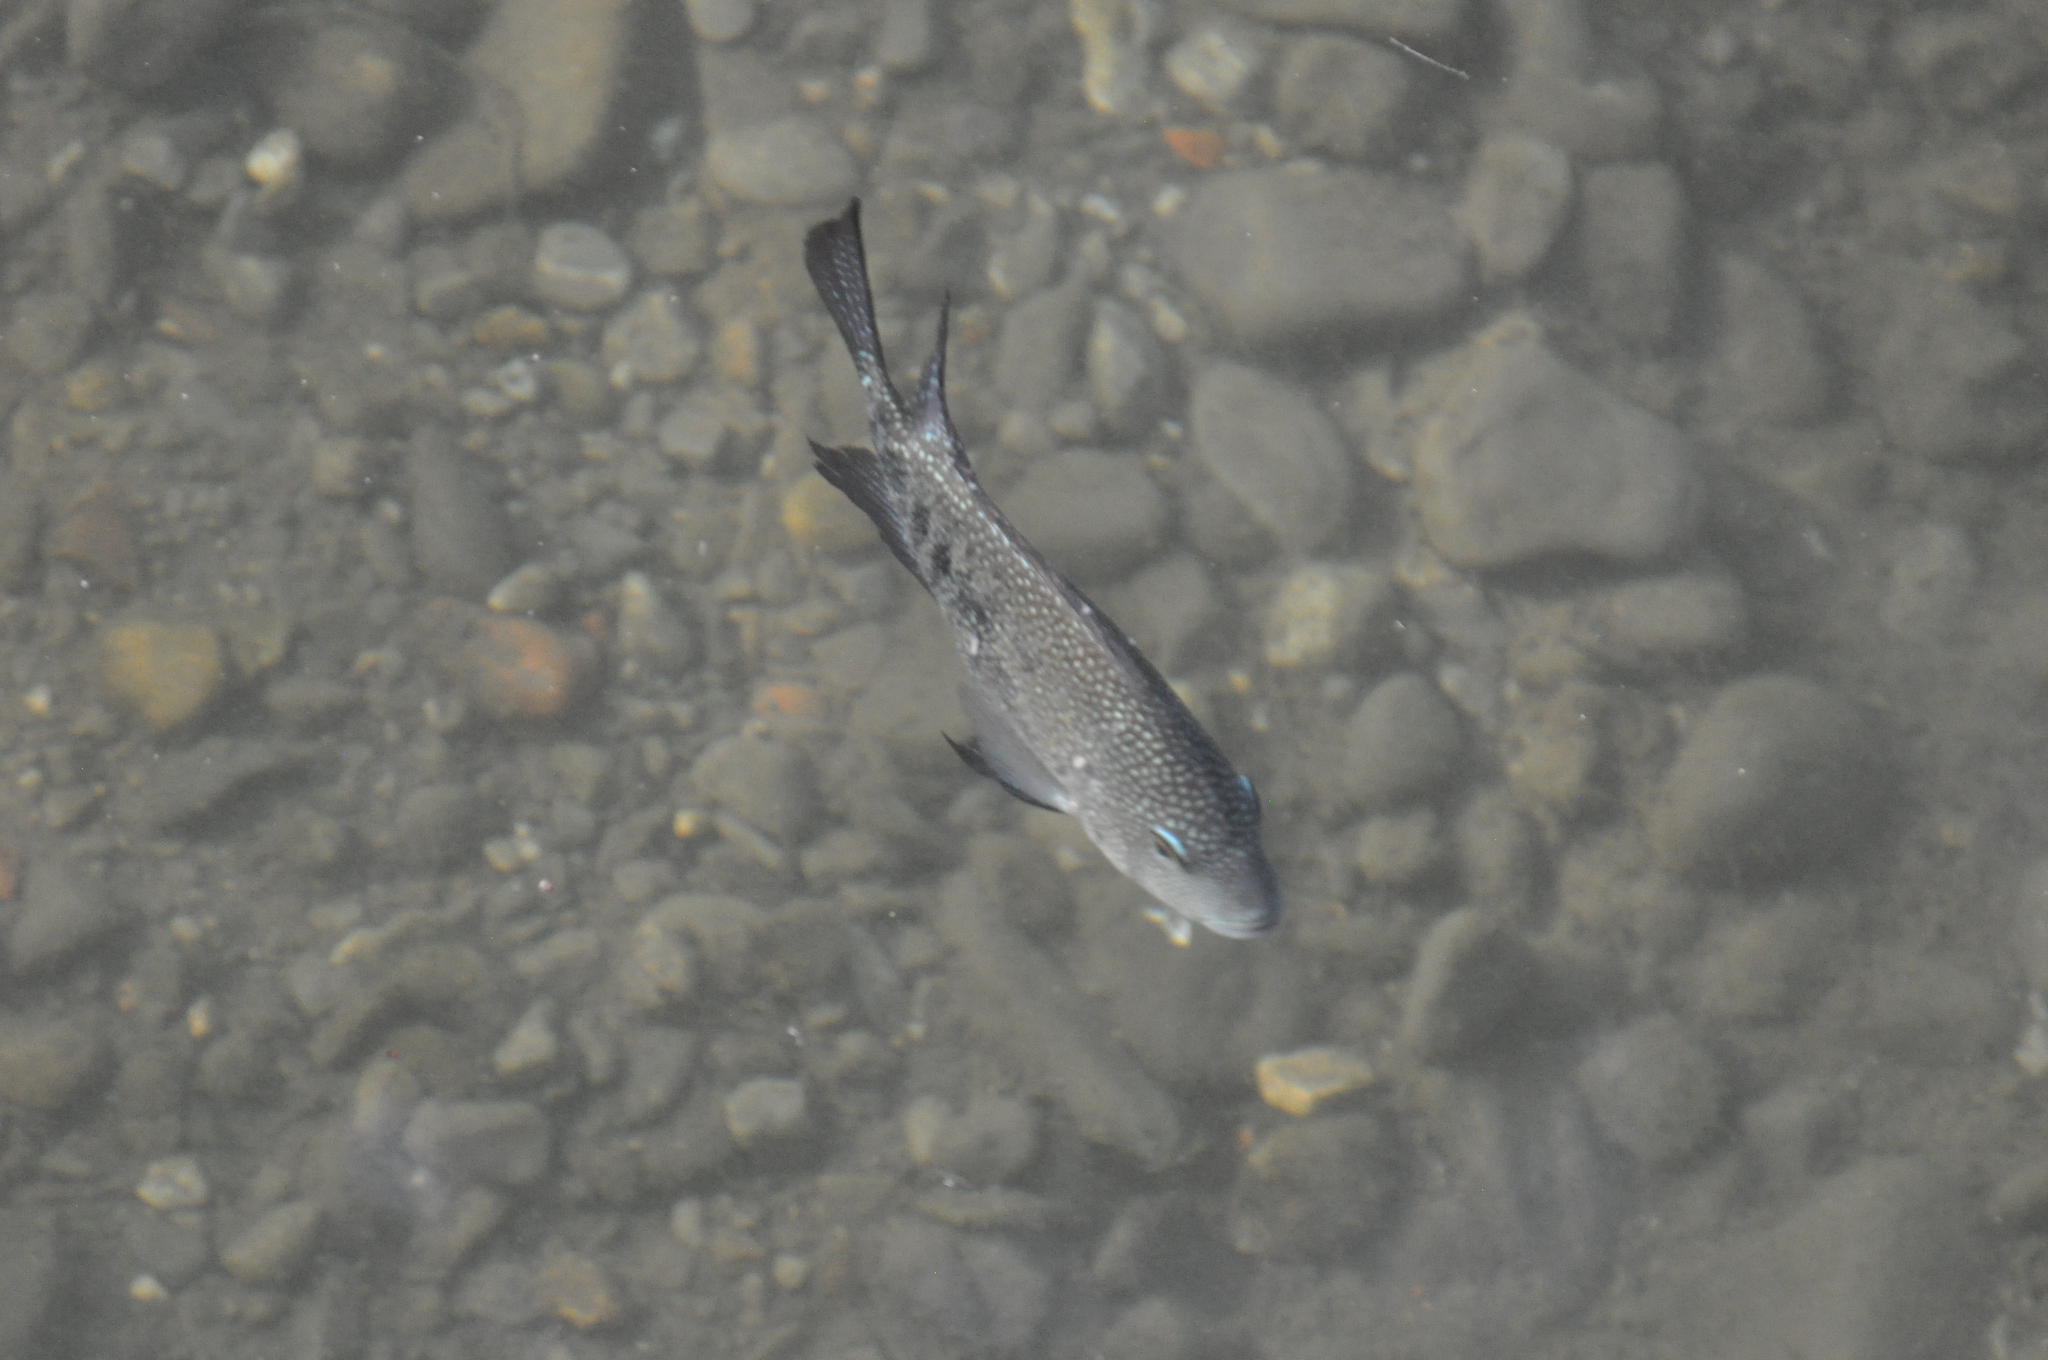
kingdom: Animalia
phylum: Chordata
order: Perciformes
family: Cichlidae
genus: Herichthys
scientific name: Herichthys cyanoguttatus
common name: Rio grande cichlid
